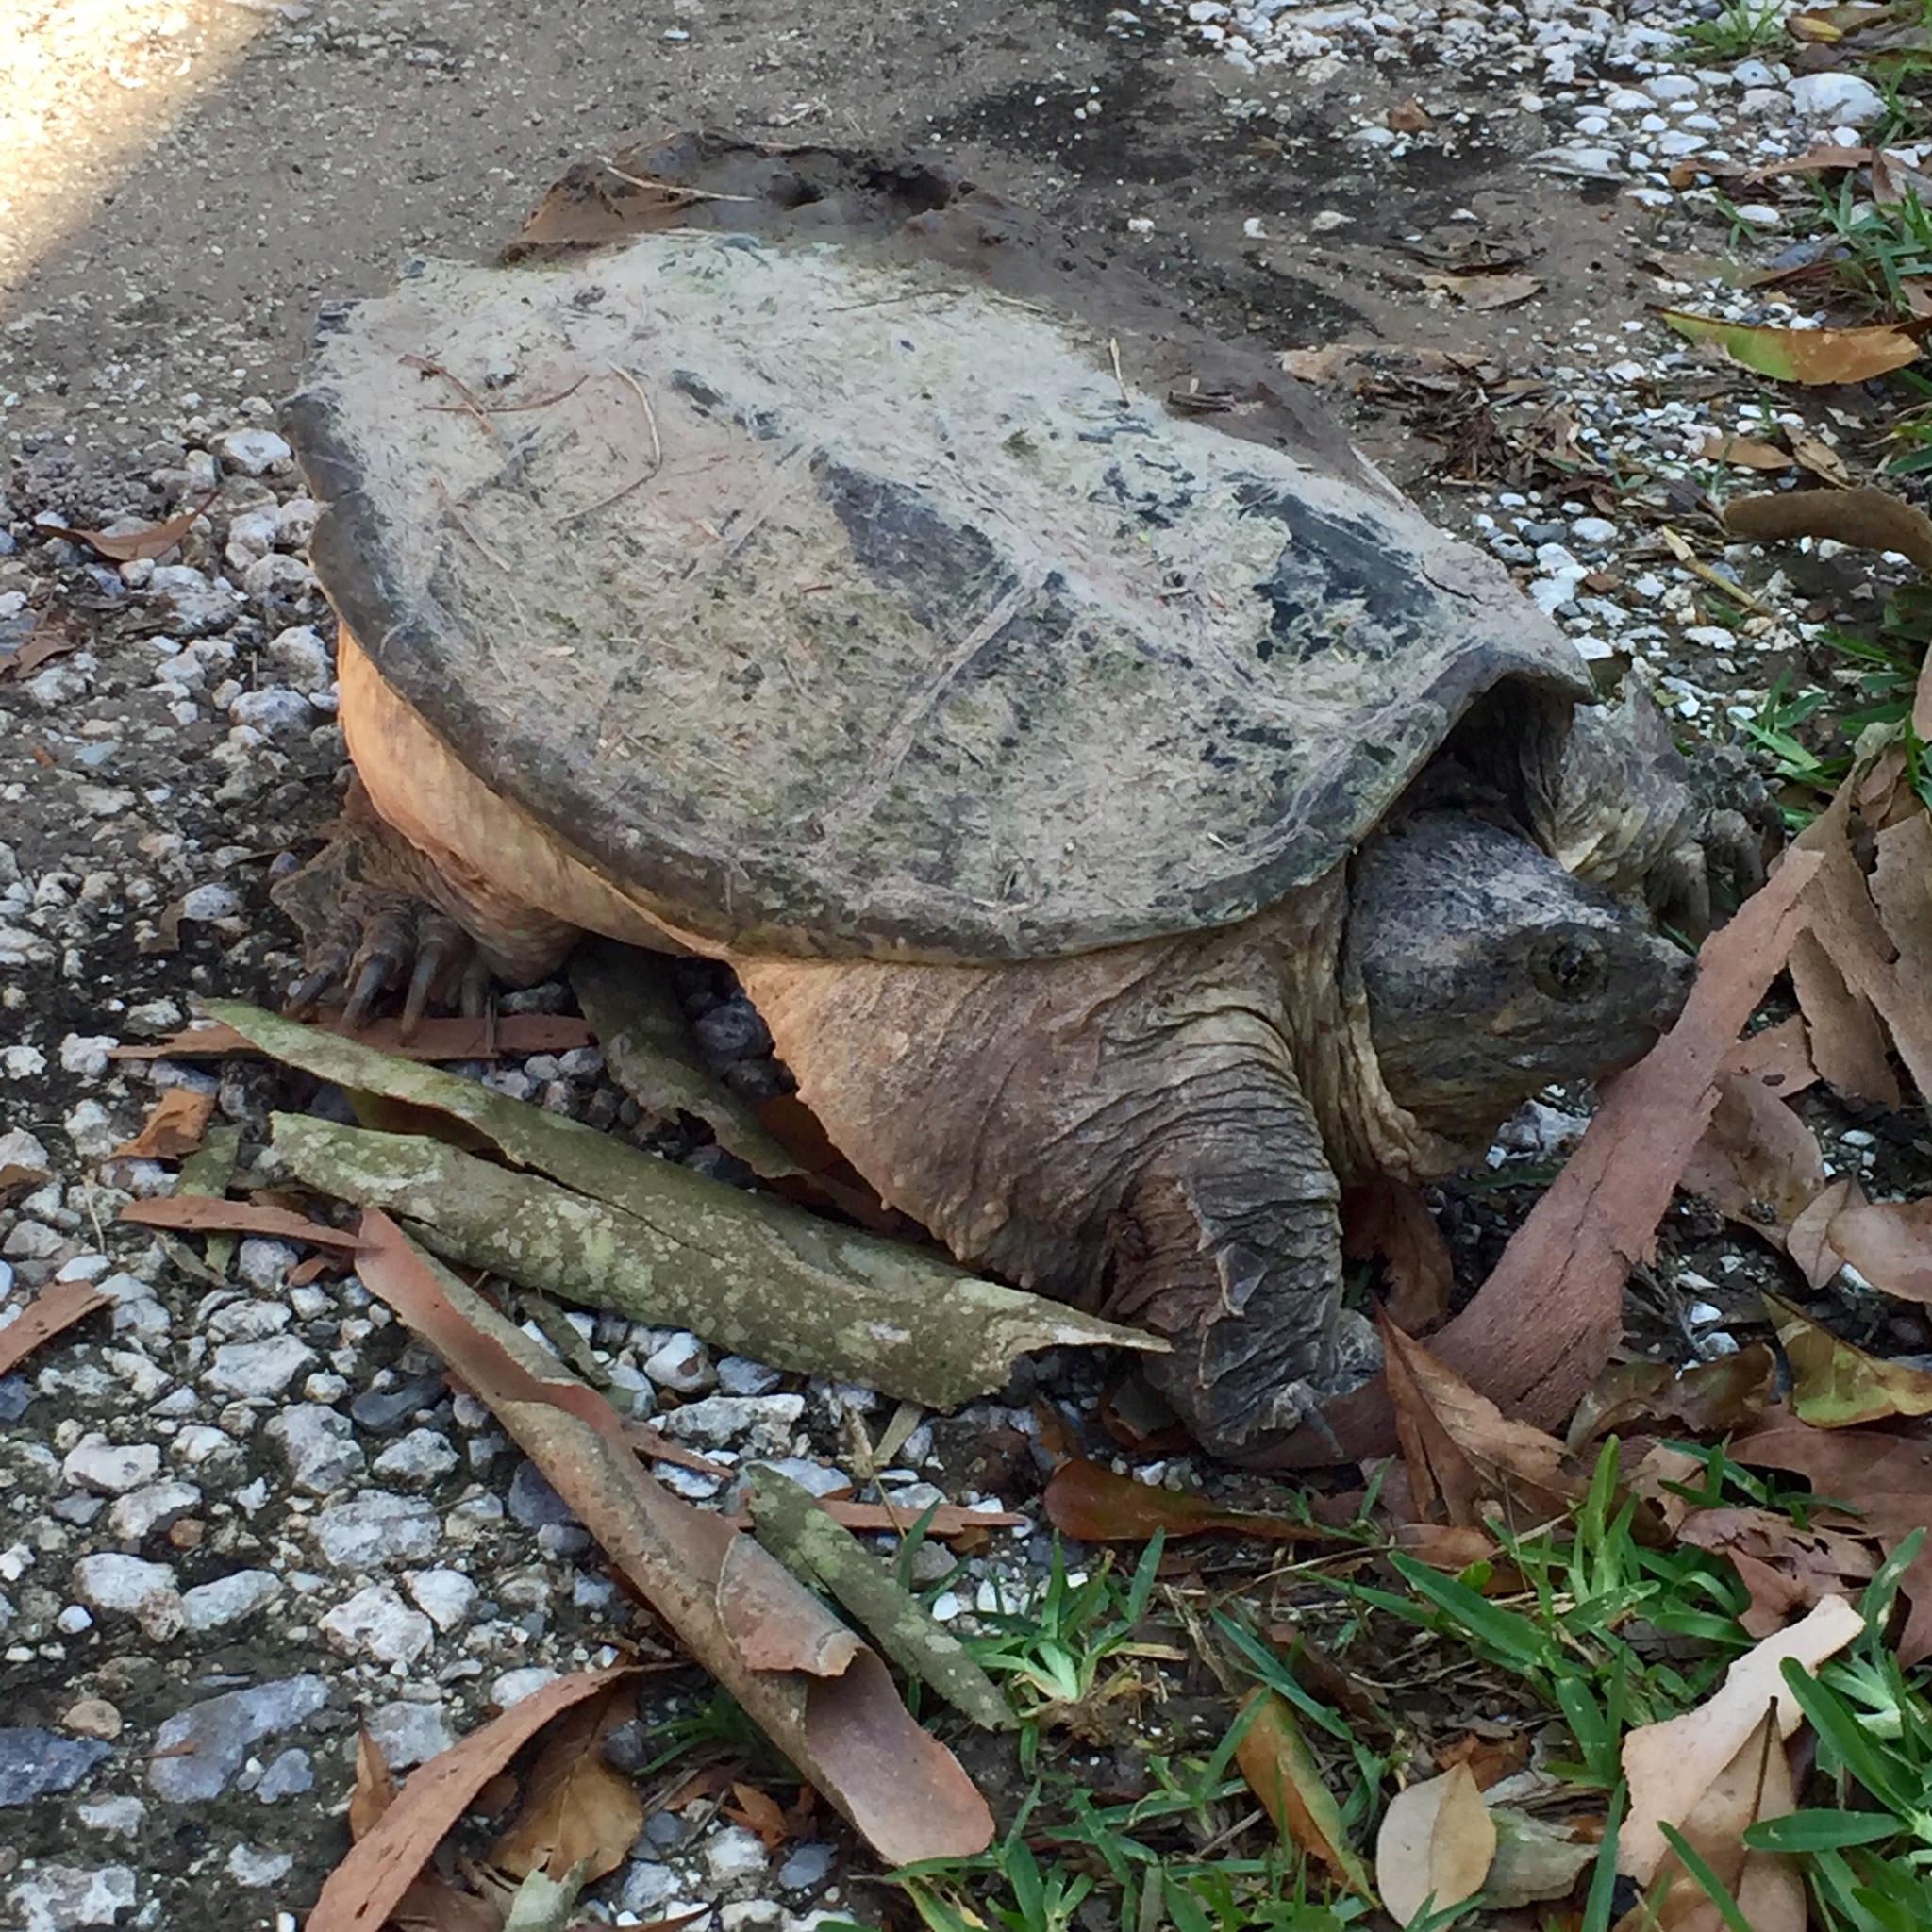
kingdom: Animalia
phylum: Chordata
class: Testudines
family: Chelydridae
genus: Chelydra
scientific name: Chelydra serpentina
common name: Common snapping turtle
